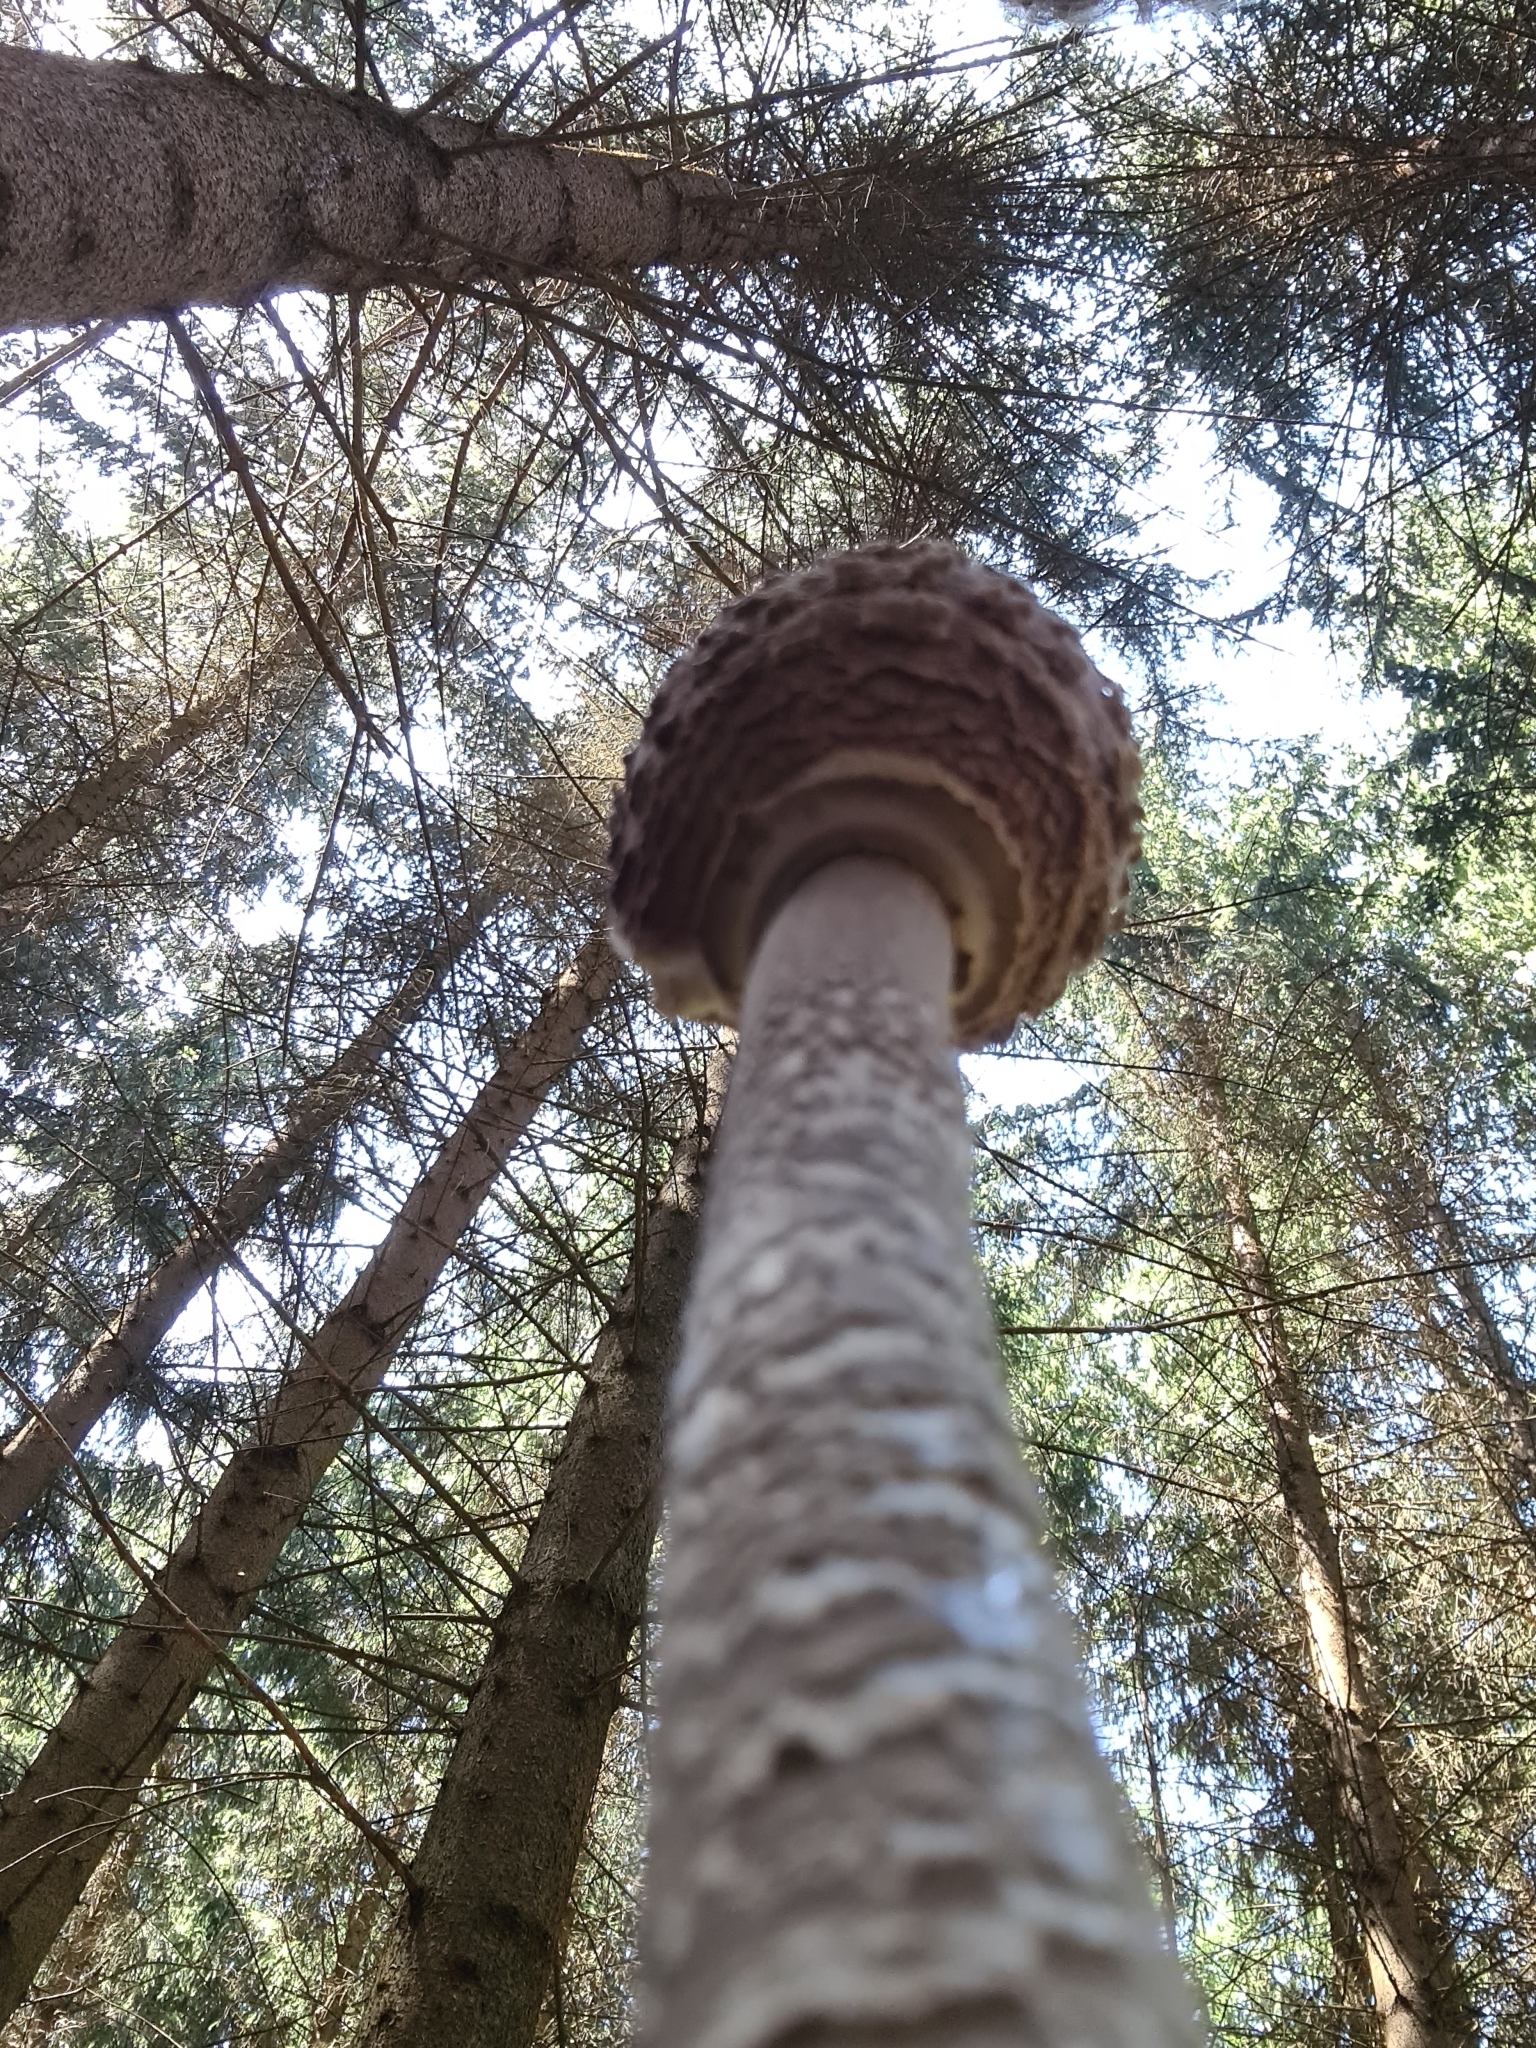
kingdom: Fungi
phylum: Basidiomycota
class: Agaricomycetes
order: Agaricales
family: Agaricaceae
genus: Macrolepiota
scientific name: Macrolepiota procera
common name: Parasol
